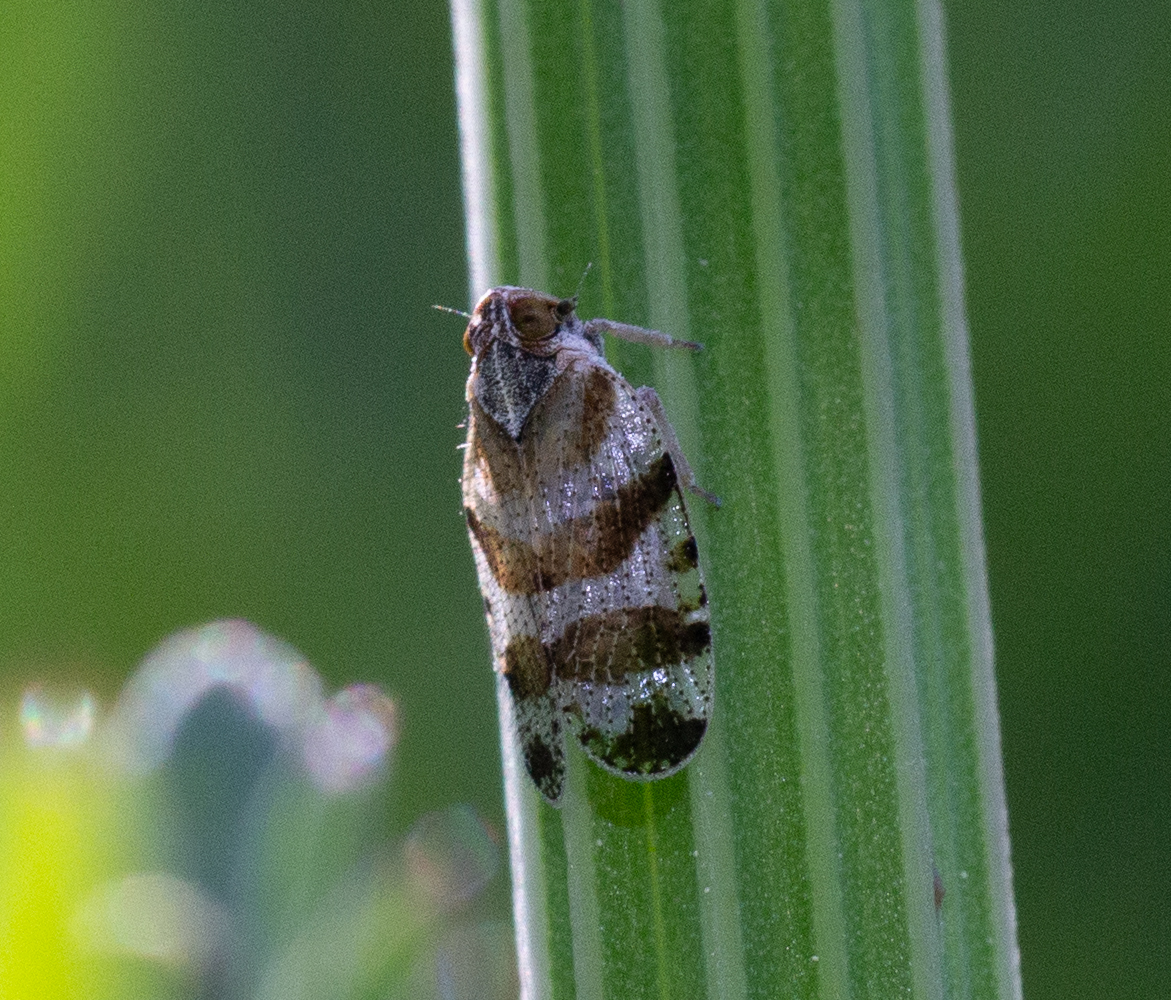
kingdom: Animalia
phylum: Arthropoda
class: Insecta
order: Hemiptera
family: Cixiidae
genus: Tachycixius
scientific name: Tachycixius venustulus
